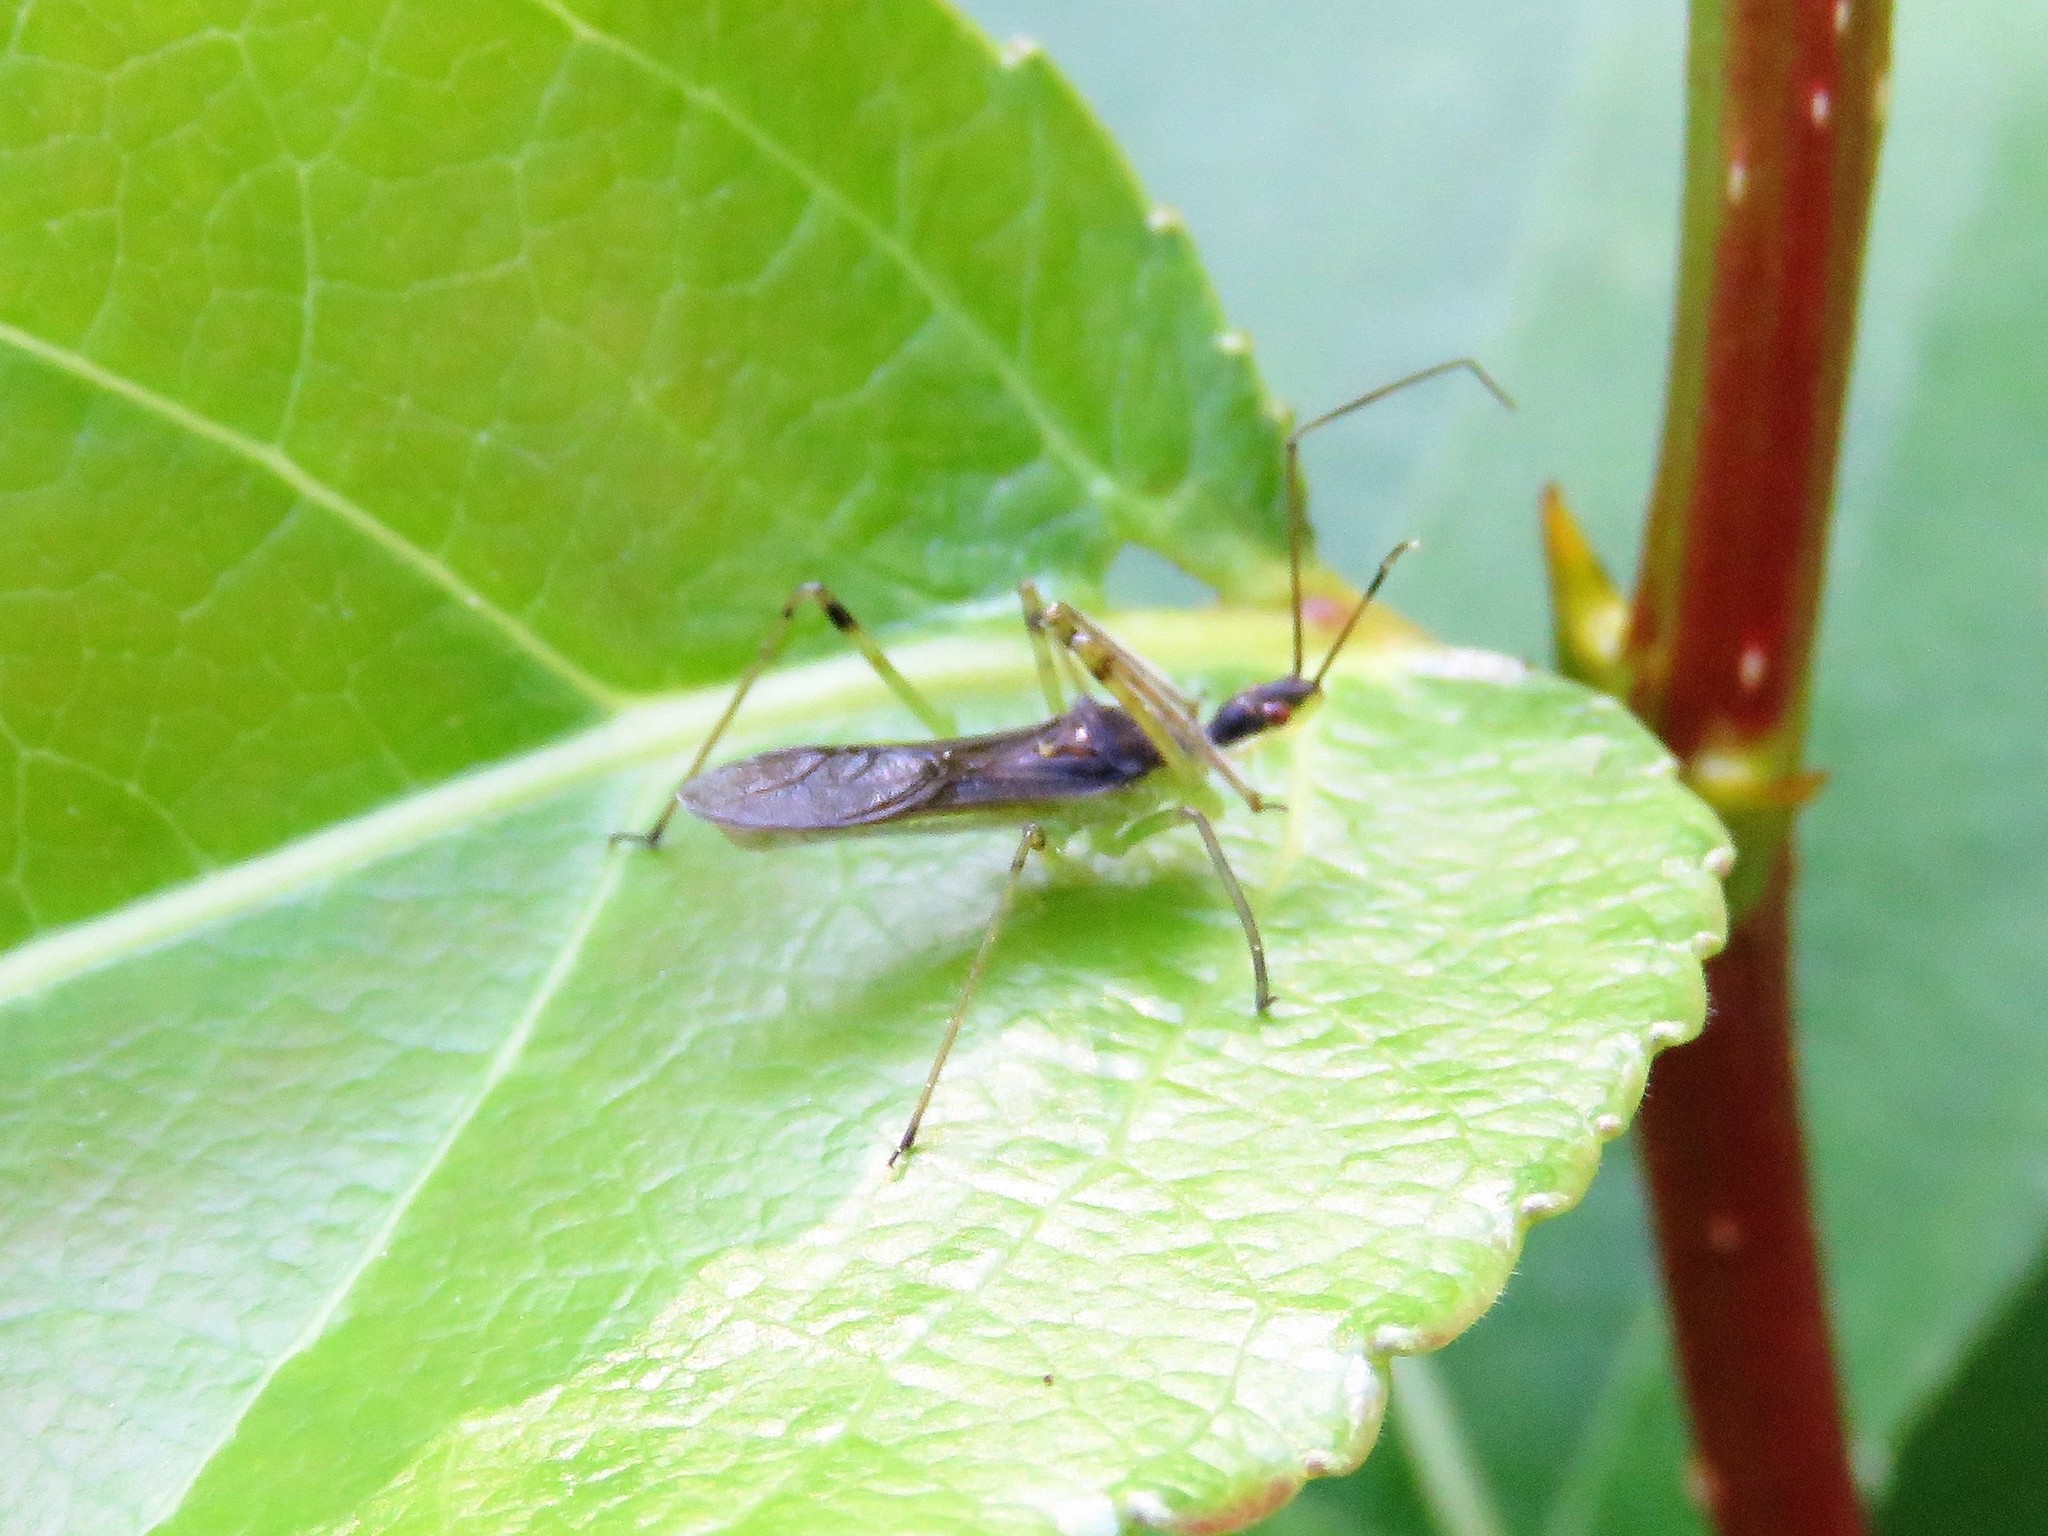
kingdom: Animalia
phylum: Arthropoda
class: Insecta
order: Hemiptera
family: Reduviidae
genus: Zelus
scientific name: Zelus luridus
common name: Pale green assassin bug
